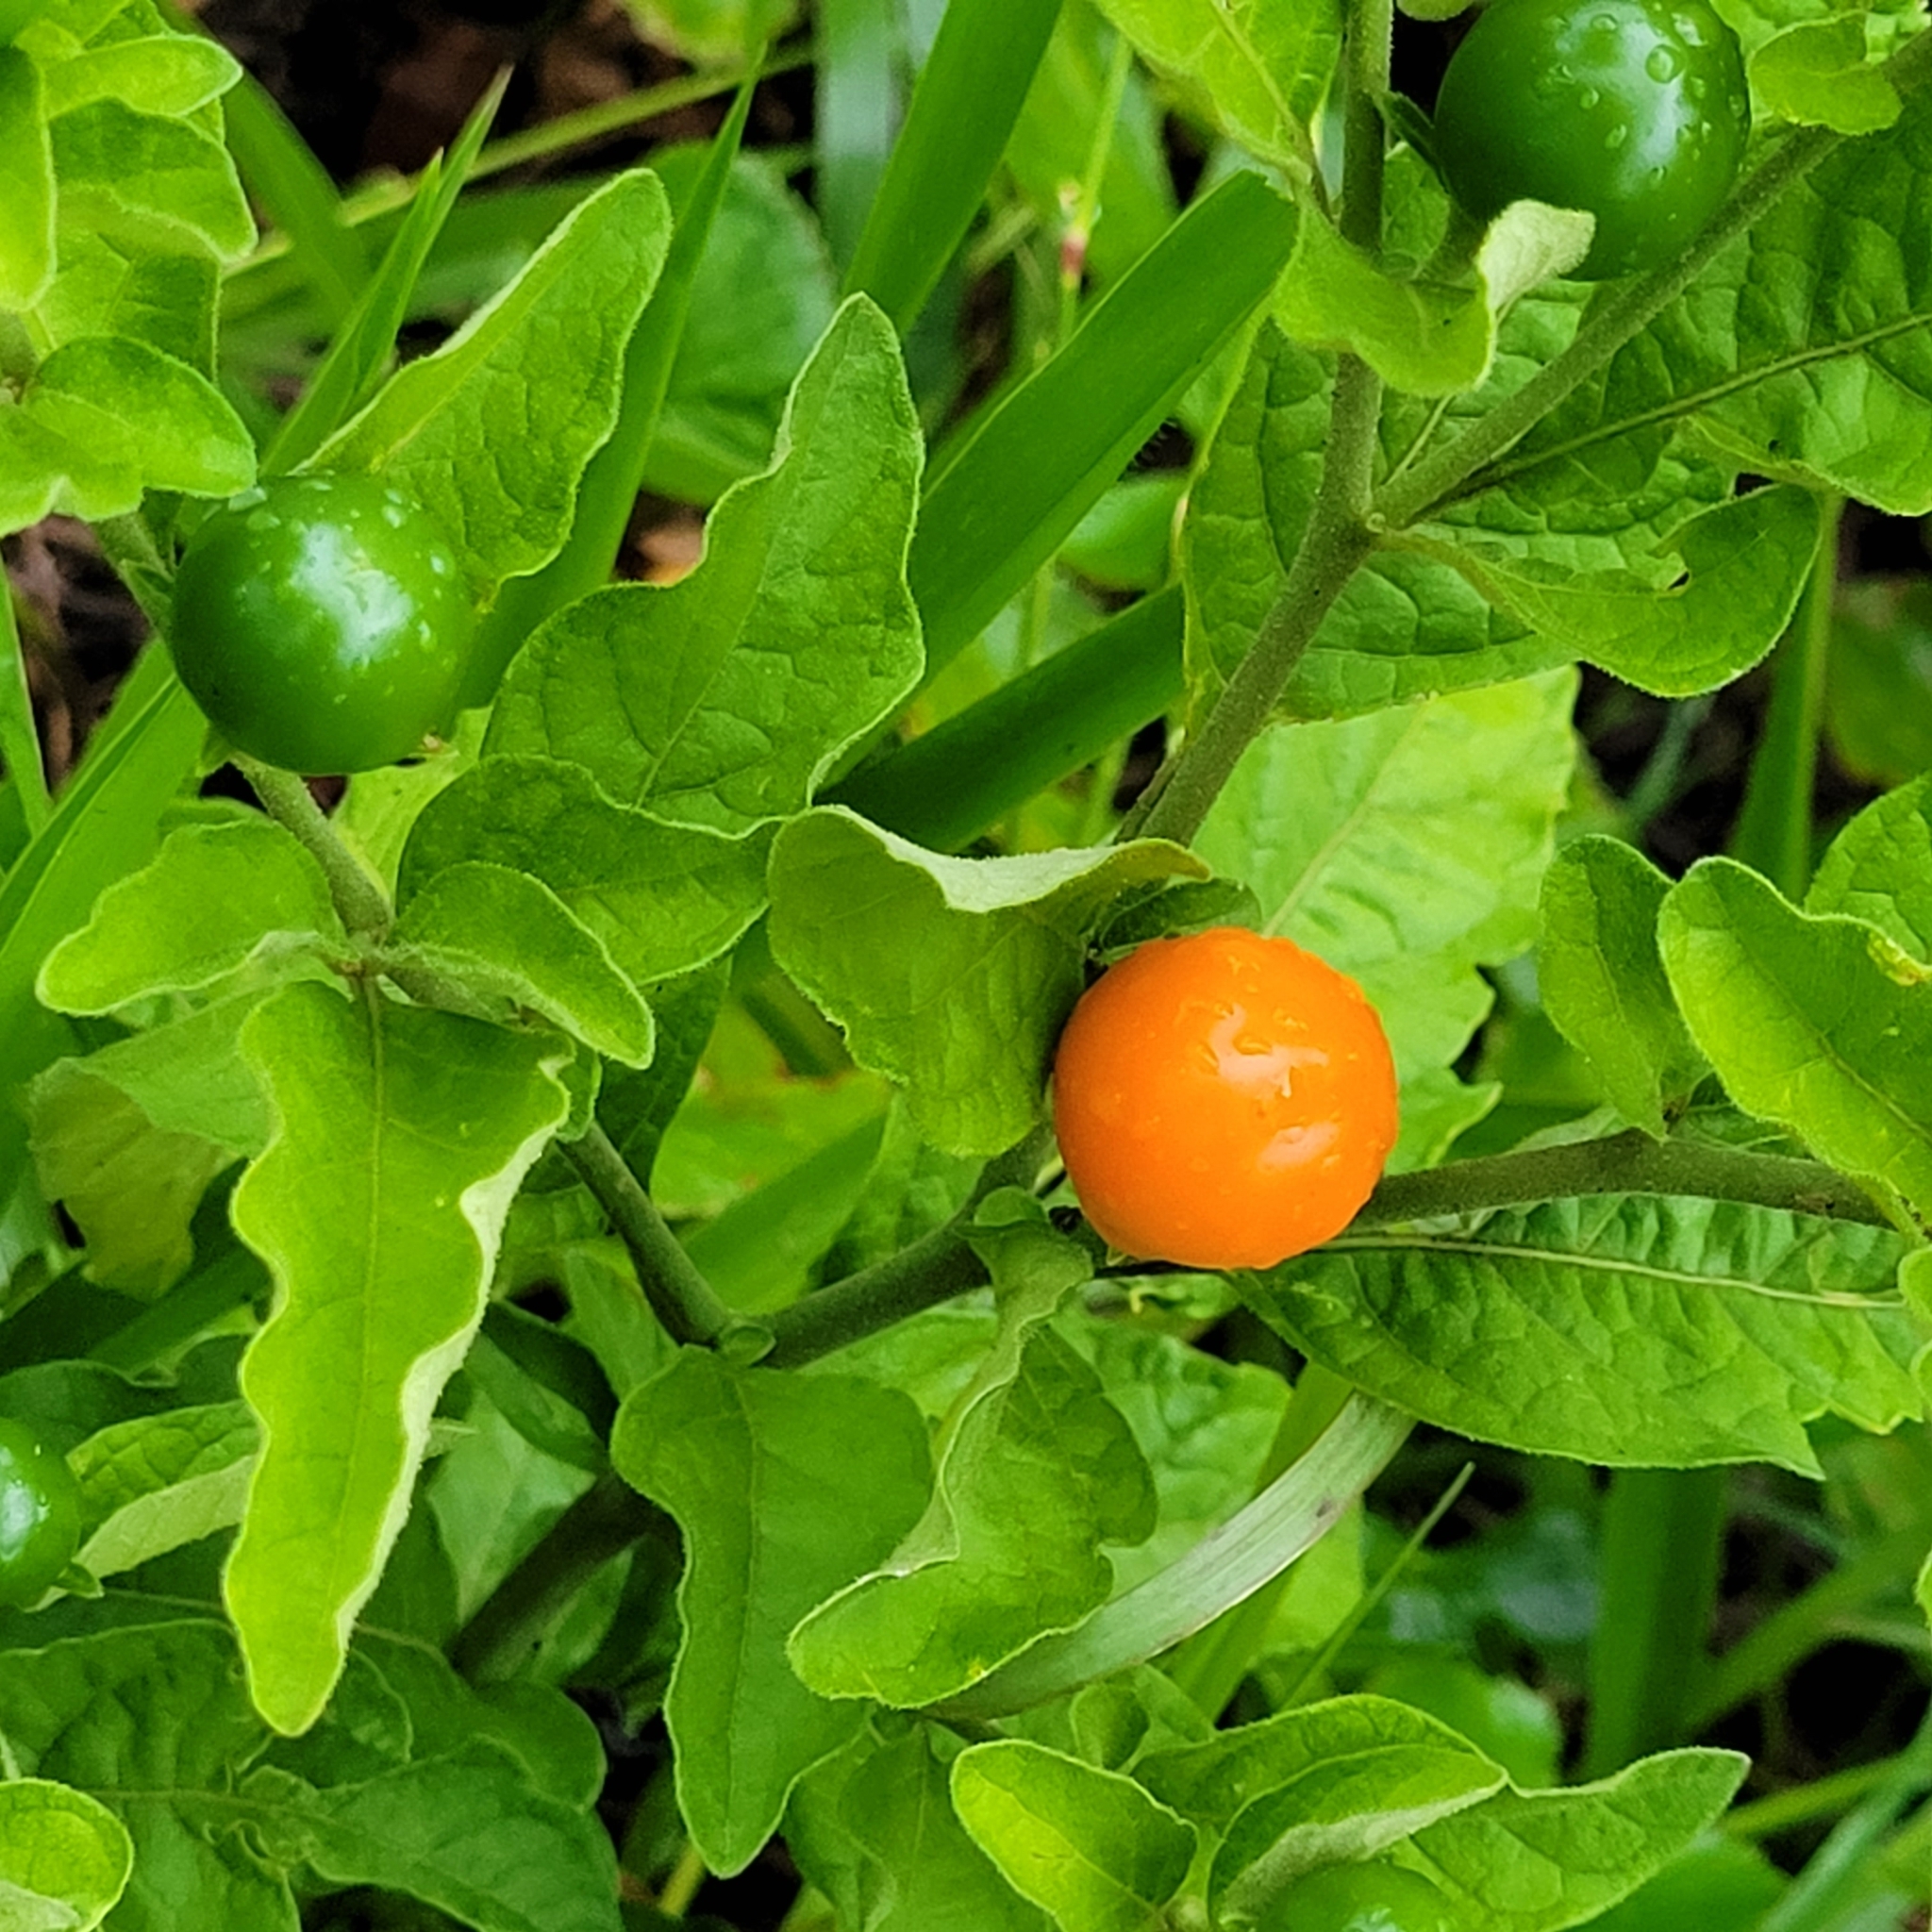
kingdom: Plantae
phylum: Tracheophyta
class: Magnoliopsida
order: Solanales
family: Solanaceae
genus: Solanum
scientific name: Solanum pseudocapsicum
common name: Jerusalem cherry
